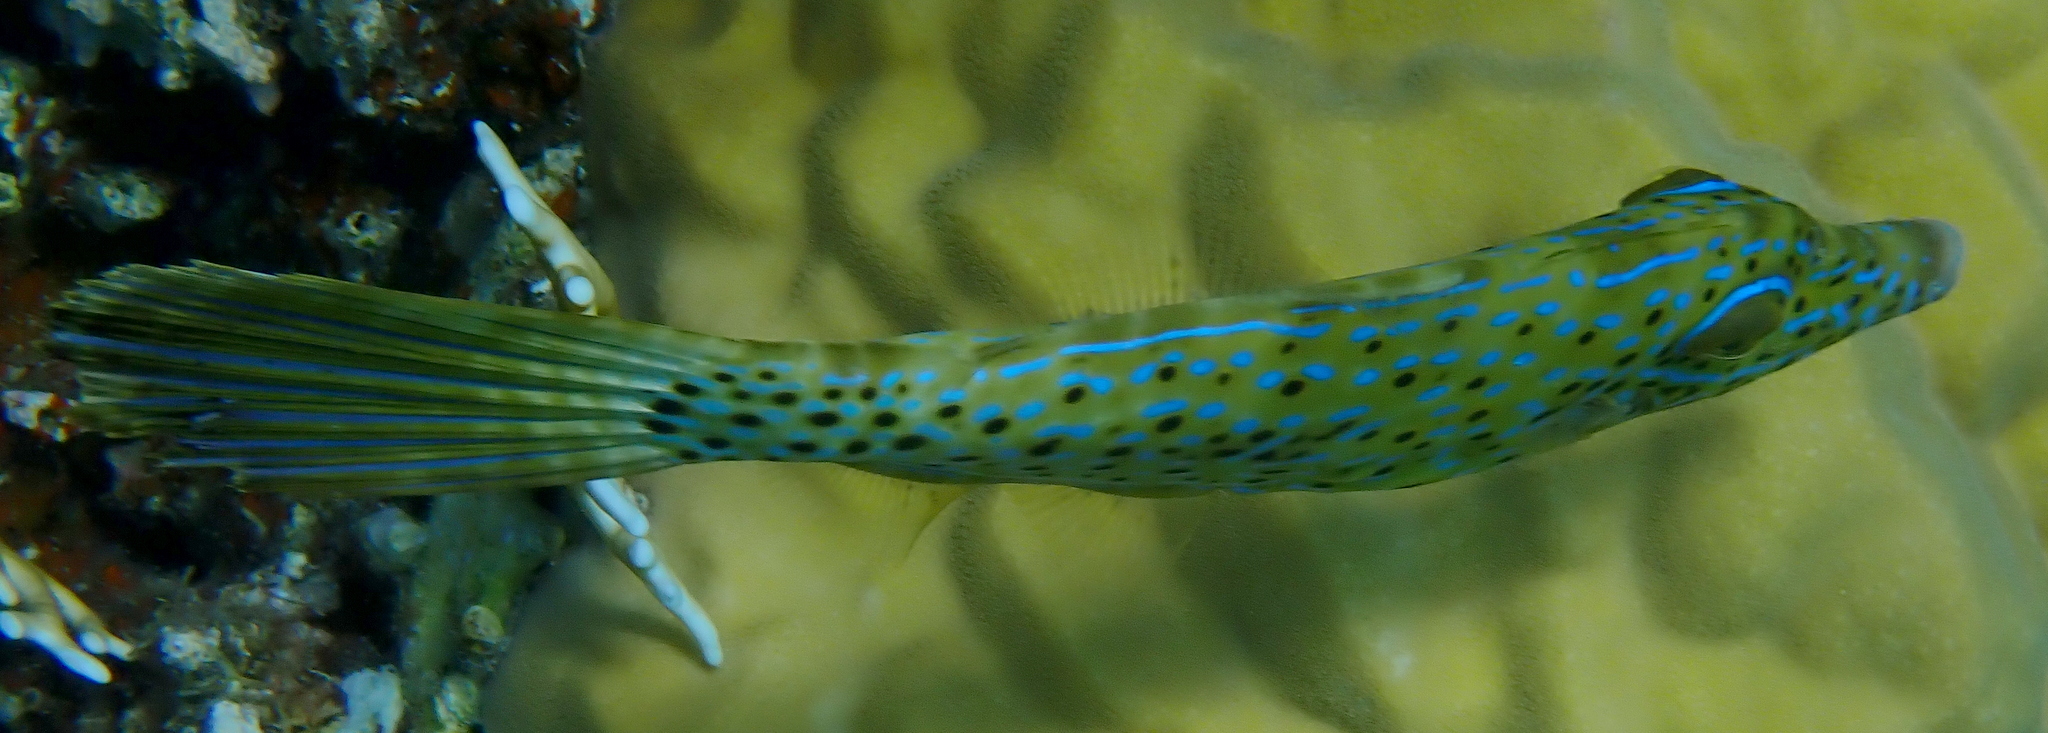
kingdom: Animalia
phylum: Chordata
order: Tetraodontiformes
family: Monacanthidae
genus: Aluterus
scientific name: Aluterus scriptus
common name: Scribbled leatherjacket filefish
